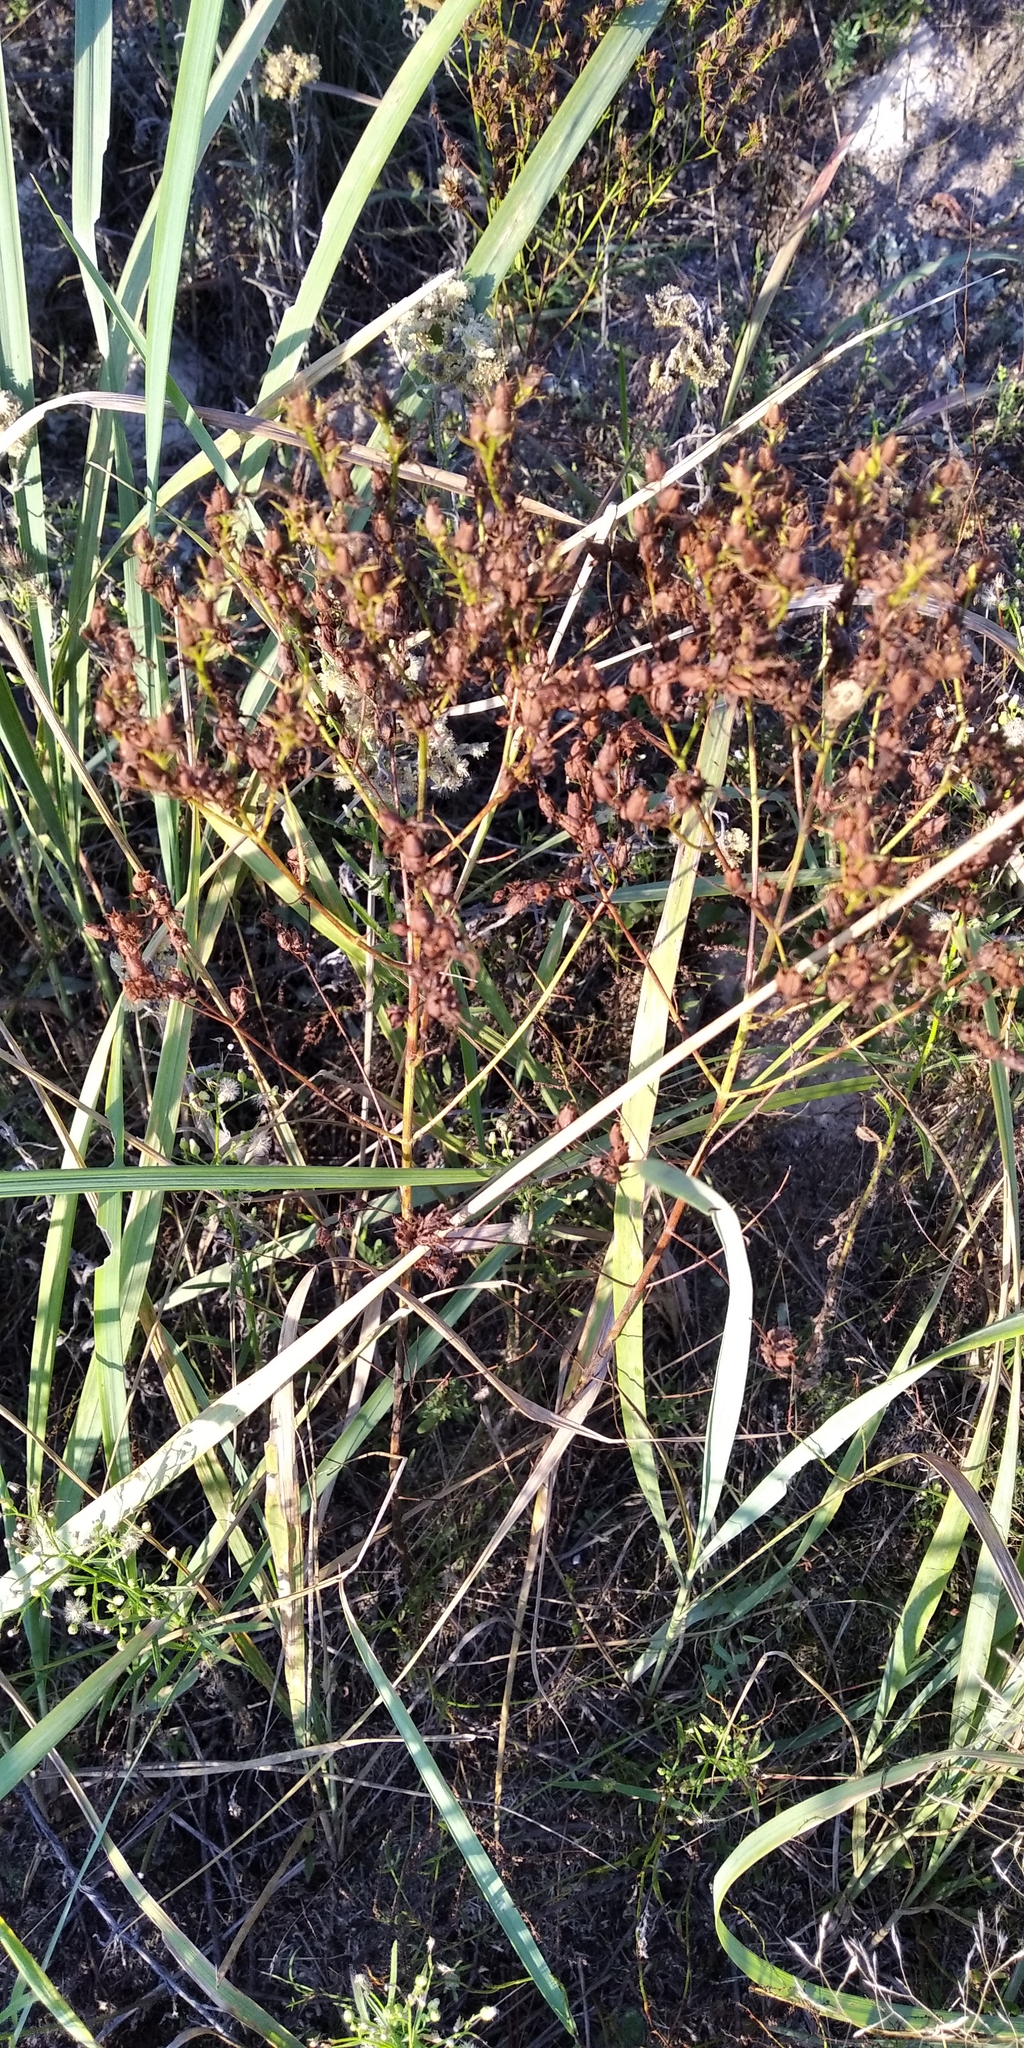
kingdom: Plantae
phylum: Tracheophyta
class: Magnoliopsida
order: Malpighiales
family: Hypericaceae
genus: Hypericum
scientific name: Hypericum perforatum
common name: Common st. johnswort
